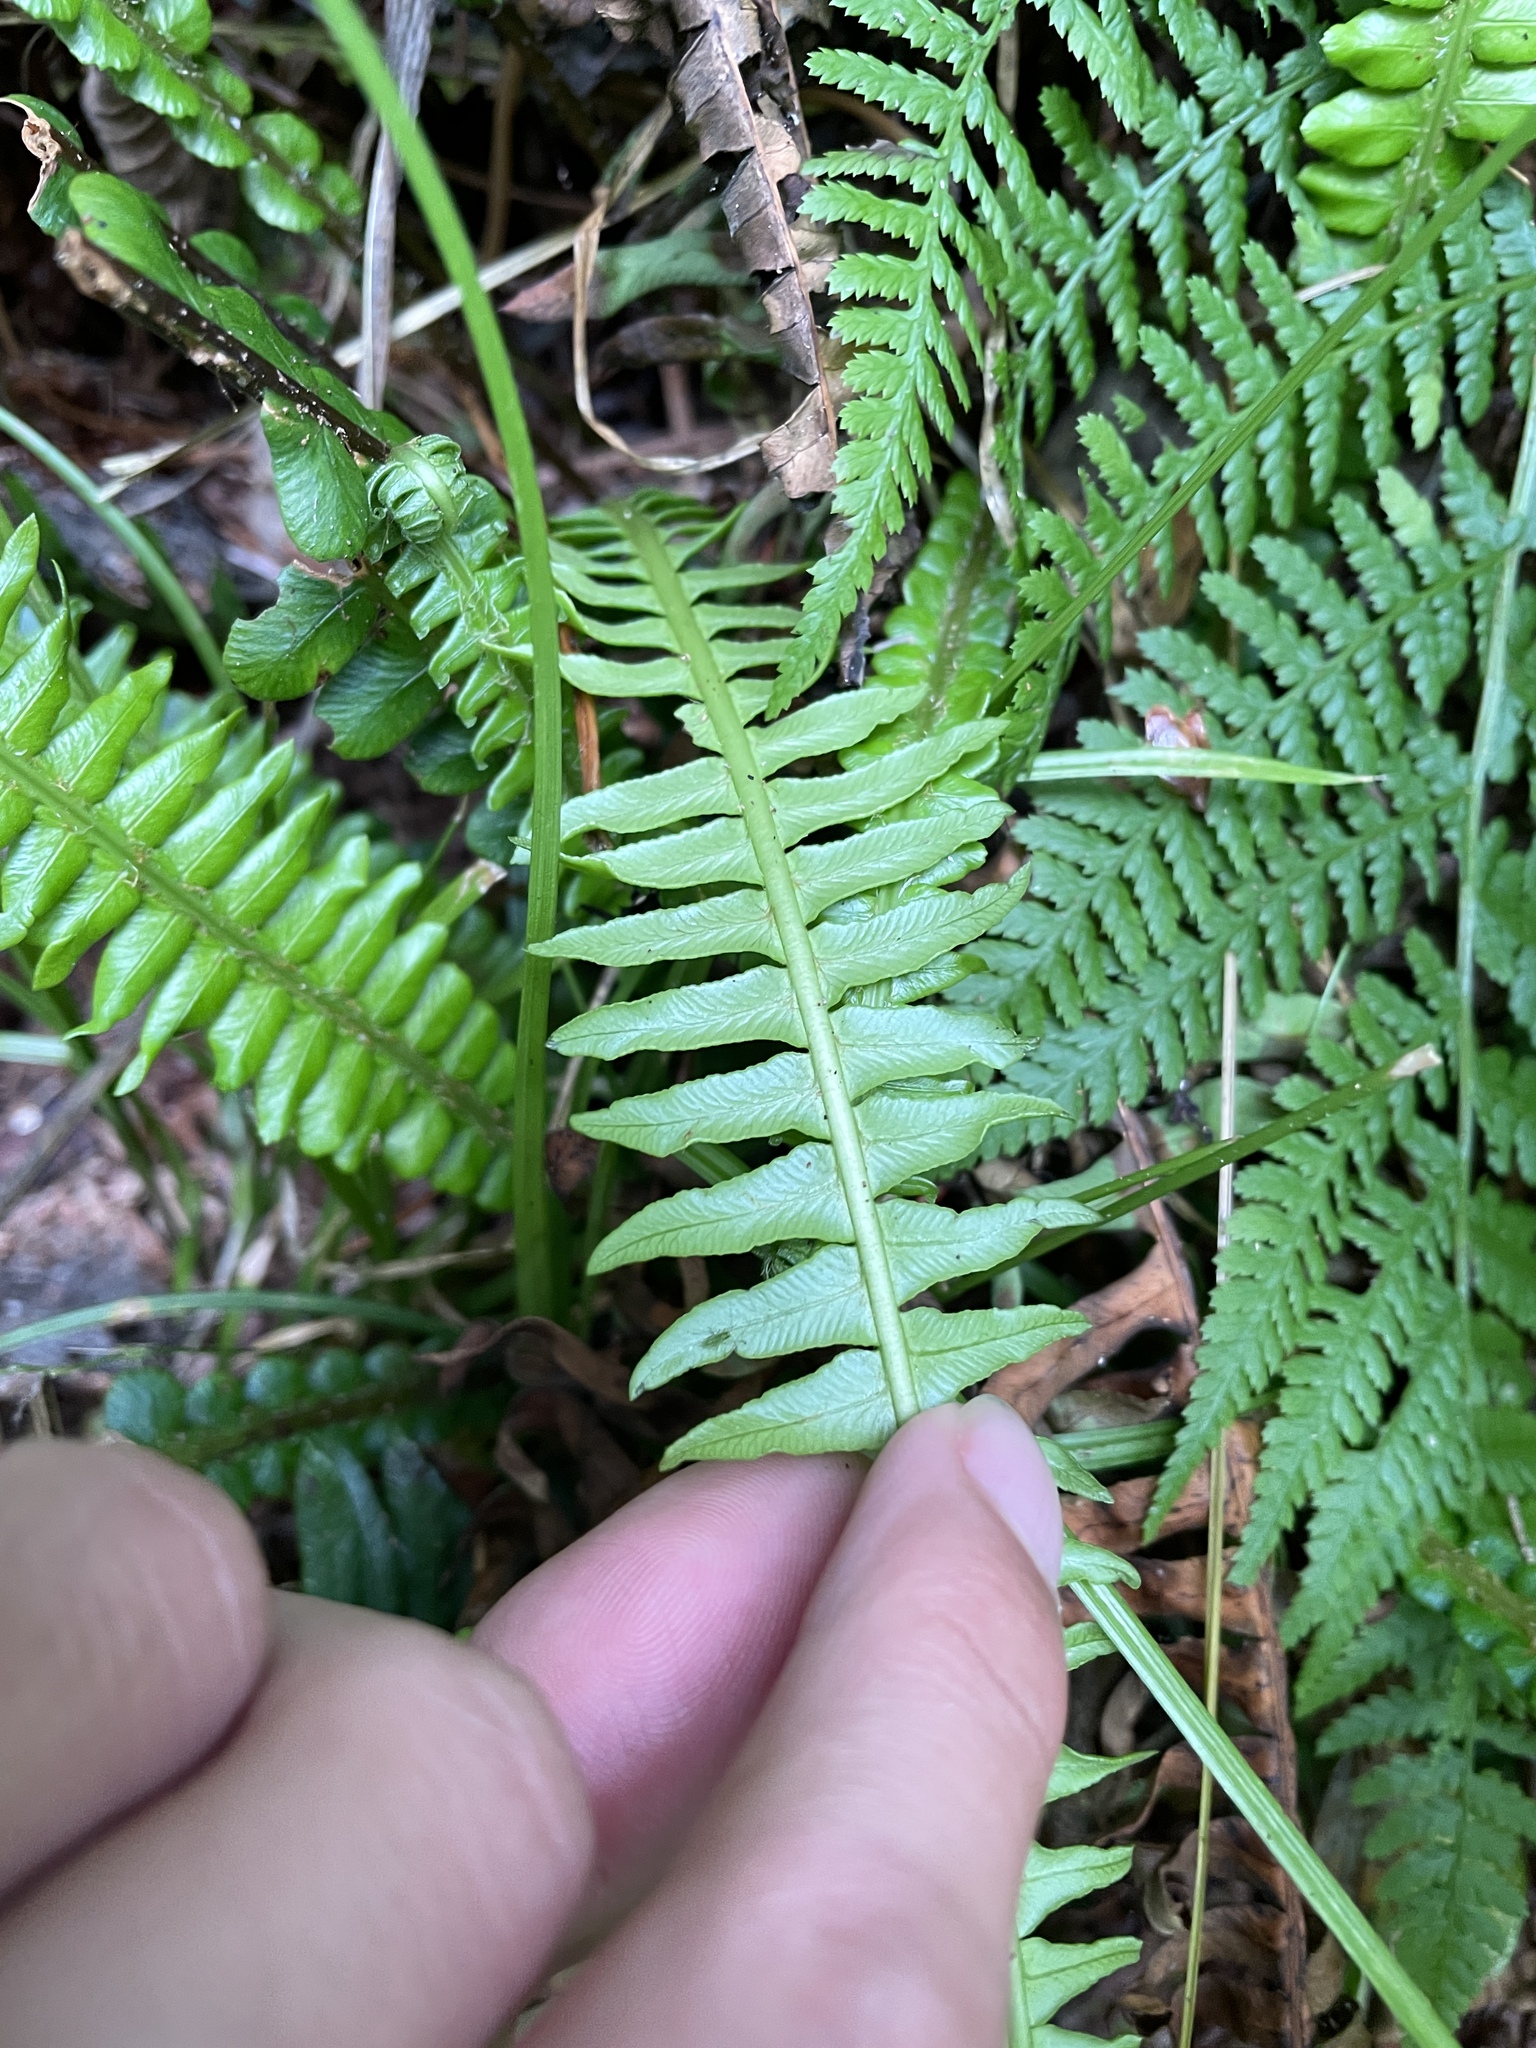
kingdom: Plantae
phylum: Tracheophyta
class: Polypodiopsida
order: Polypodiales
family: Blechnaceae
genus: Struthiopteris
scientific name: Struthiopteris spicant
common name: Deer fern
